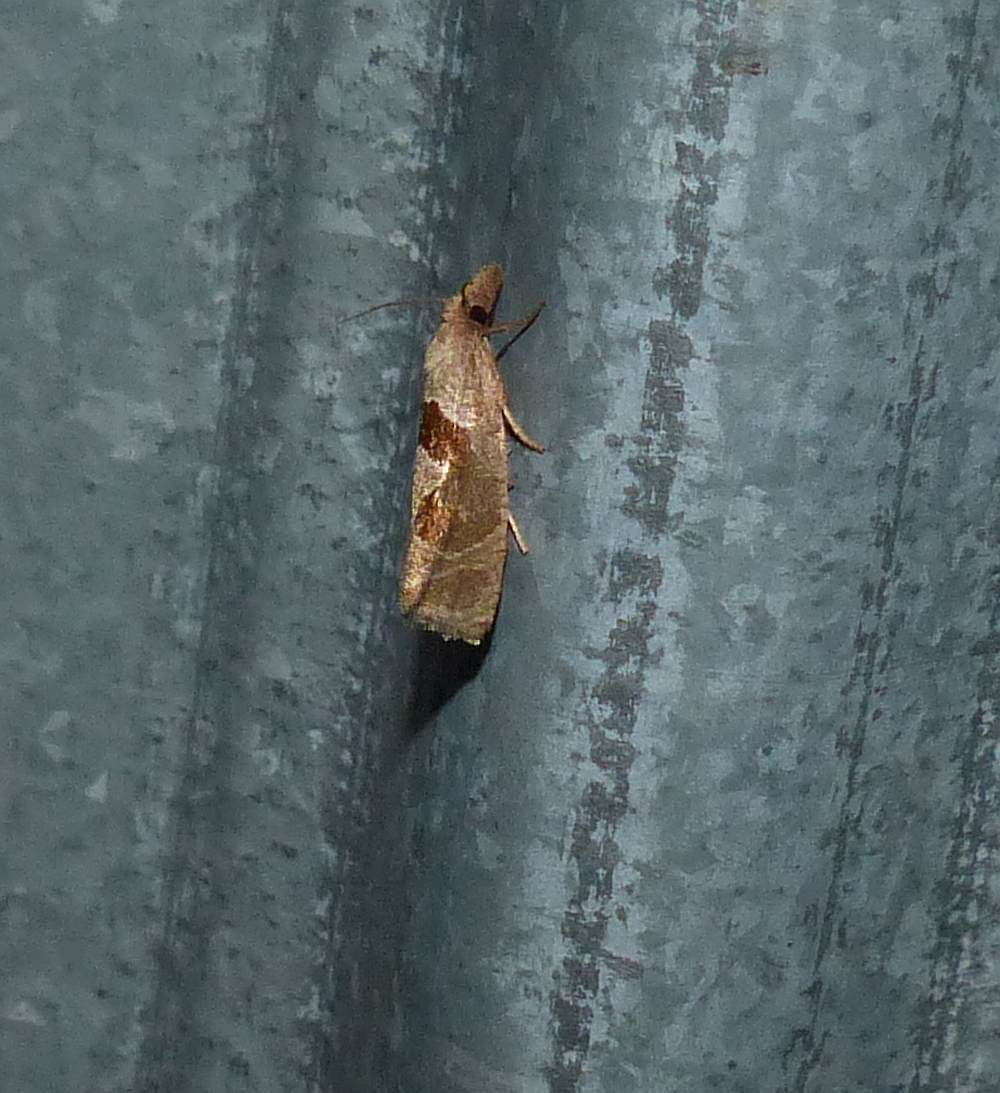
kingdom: Animalia
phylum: Arthropoda
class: Insecta
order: Lepidoptera
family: Tortricidae
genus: Pelochrista
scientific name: Pelochrista similiana
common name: Similar eucosma
